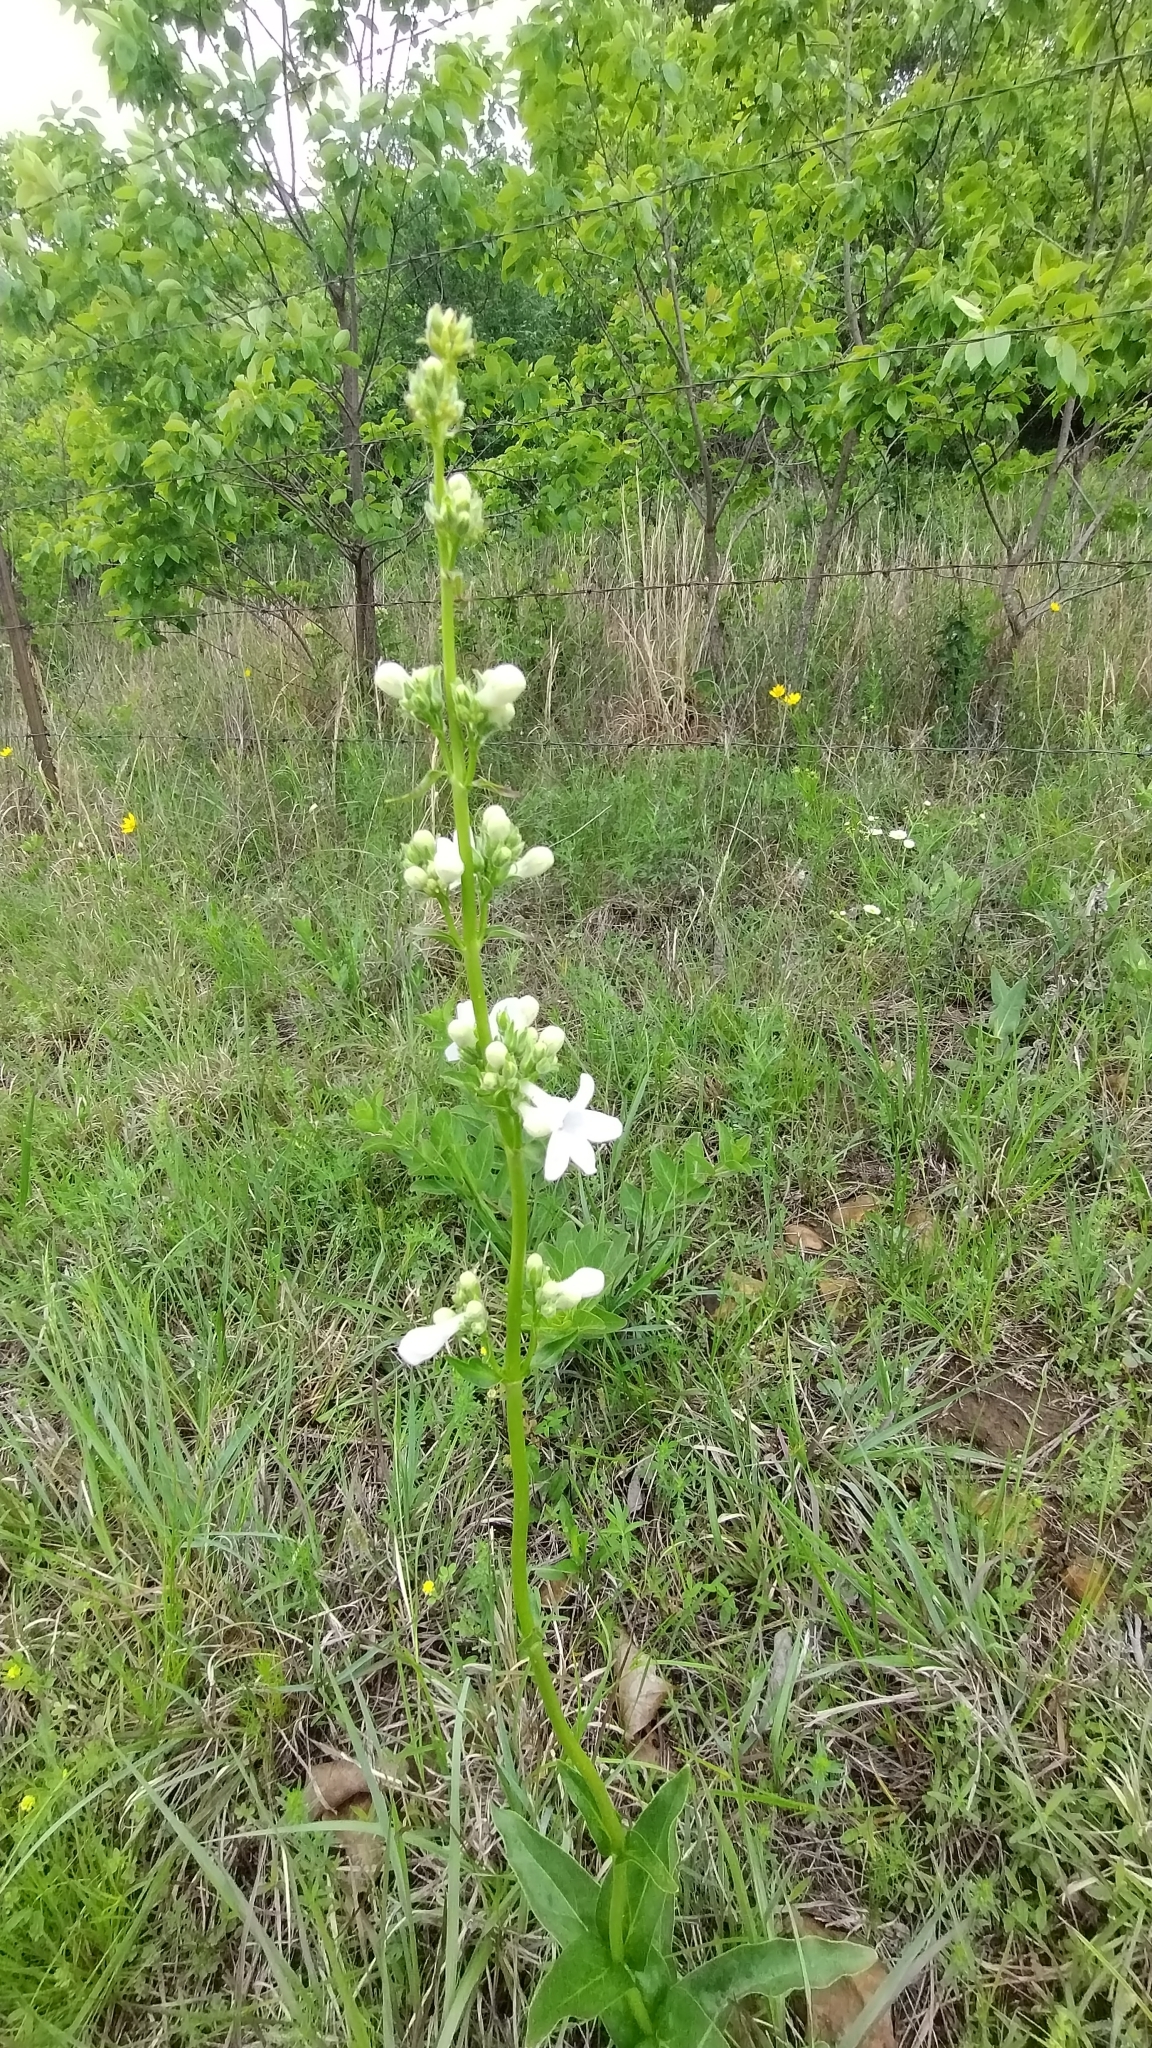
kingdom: Plantae
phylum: Tracheophyta
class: Magnoliopsida
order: Lamiales
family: Plantaginaceae
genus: Penstemon
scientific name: Penstemon tubaeflorus
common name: White wand beardtongue
